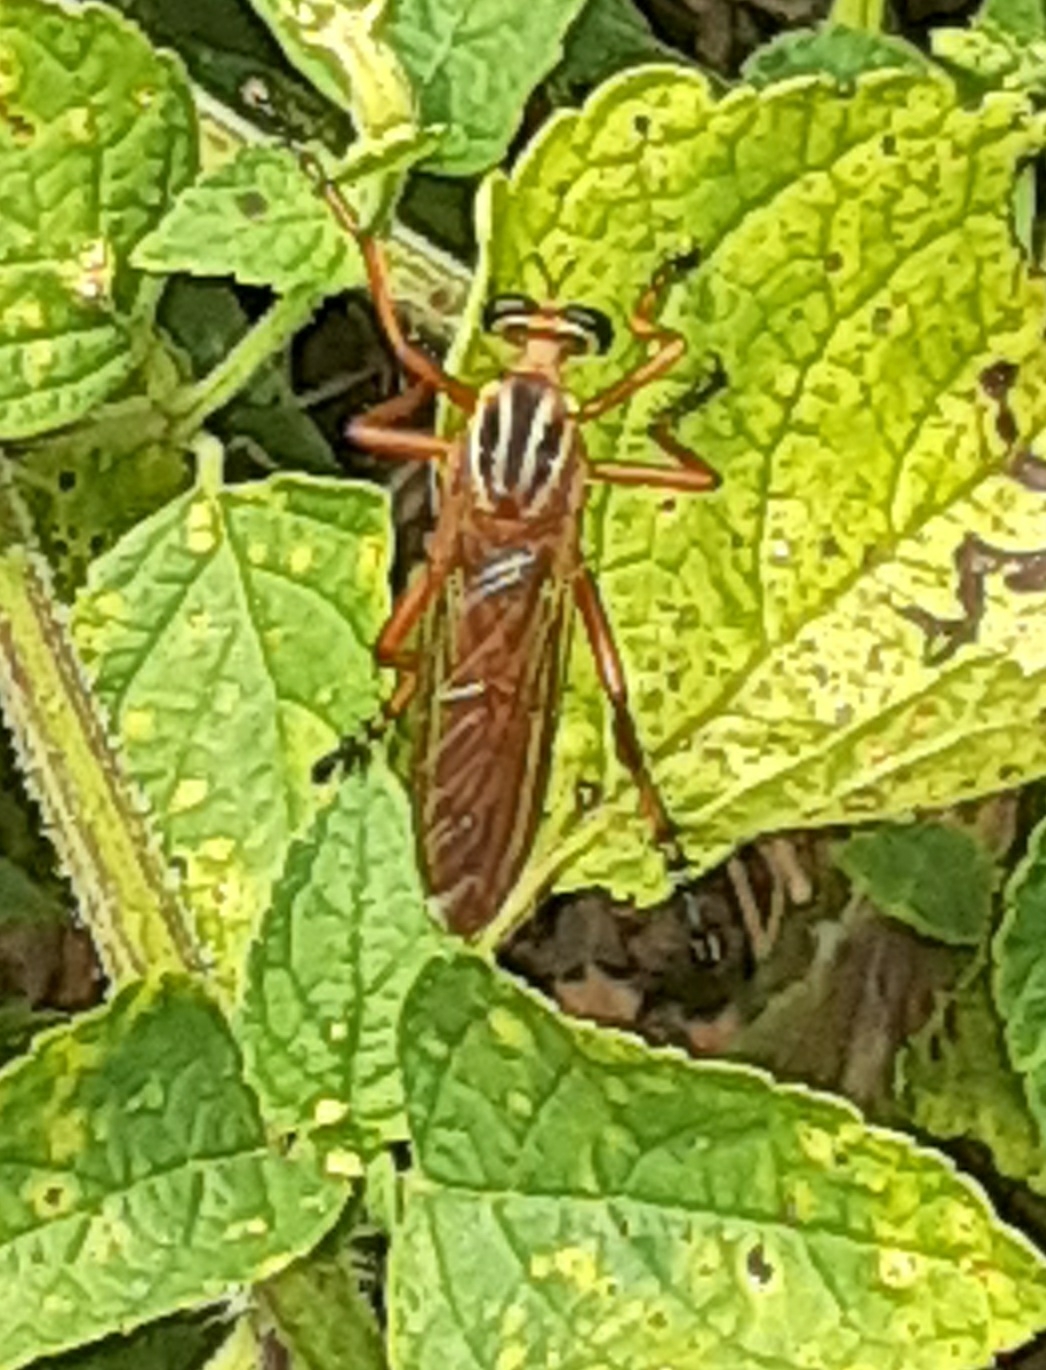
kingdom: Animalia
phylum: Arthropoda
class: Insecta
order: Diptera
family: Asilidae
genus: Diogmites
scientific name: Diogmites neoternatus
